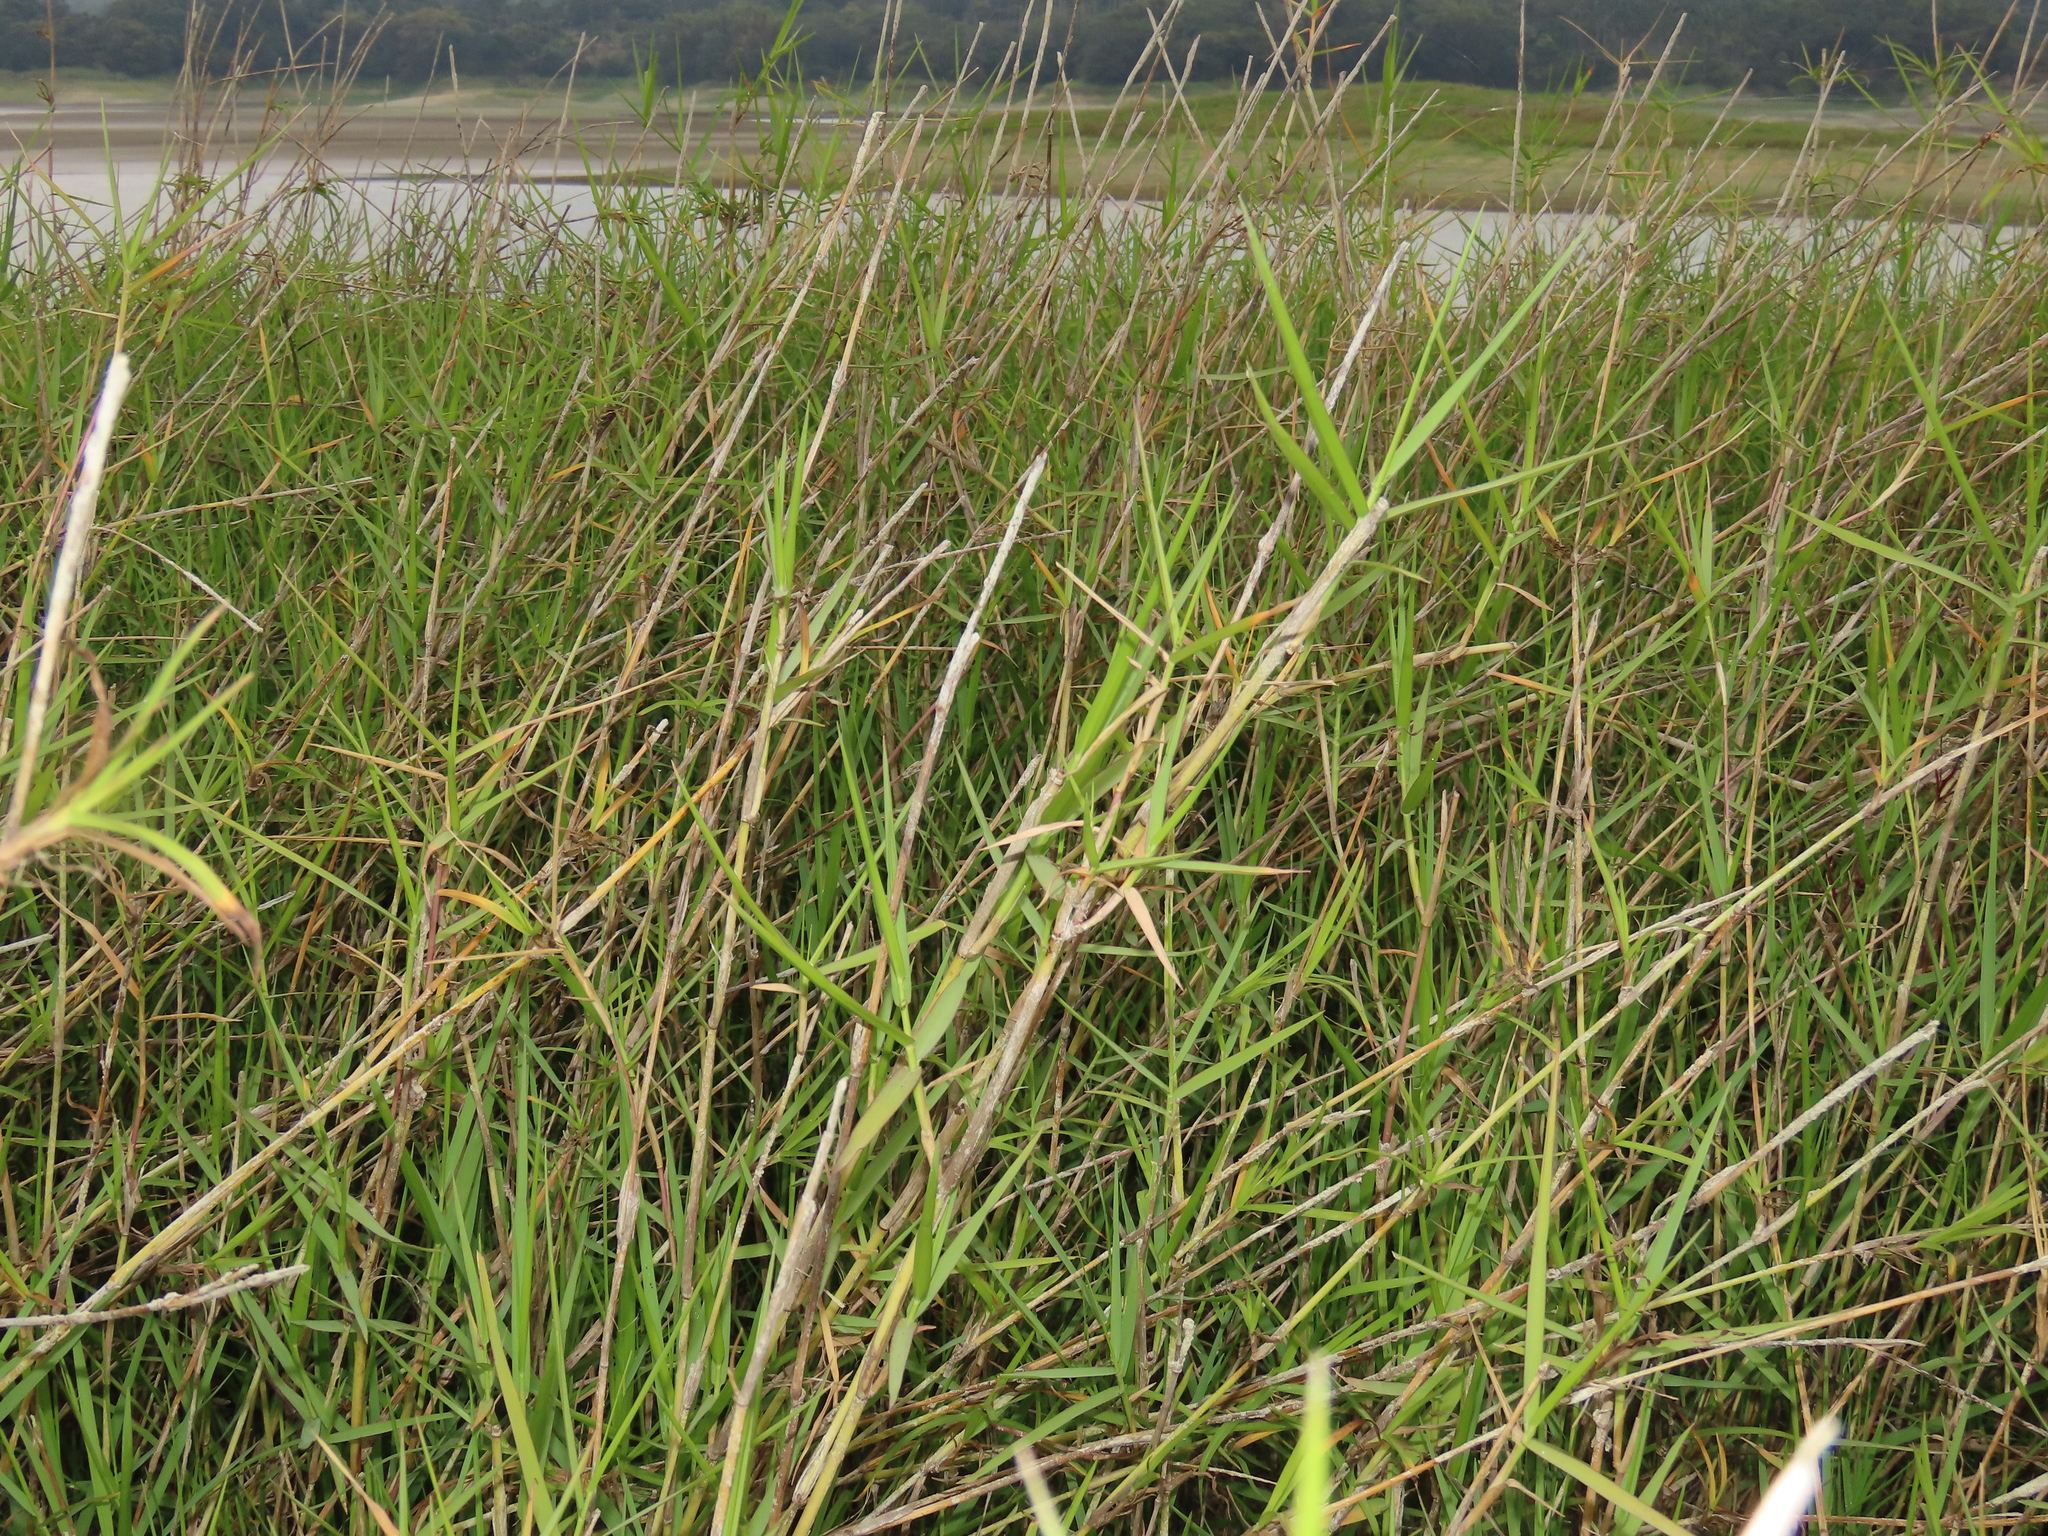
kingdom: Plantae
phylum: Tracheophyta
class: Liliopsida
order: Poales
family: Poaceae
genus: Cynodon
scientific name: Cynodon nlemfuensis
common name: African bermudagrass
